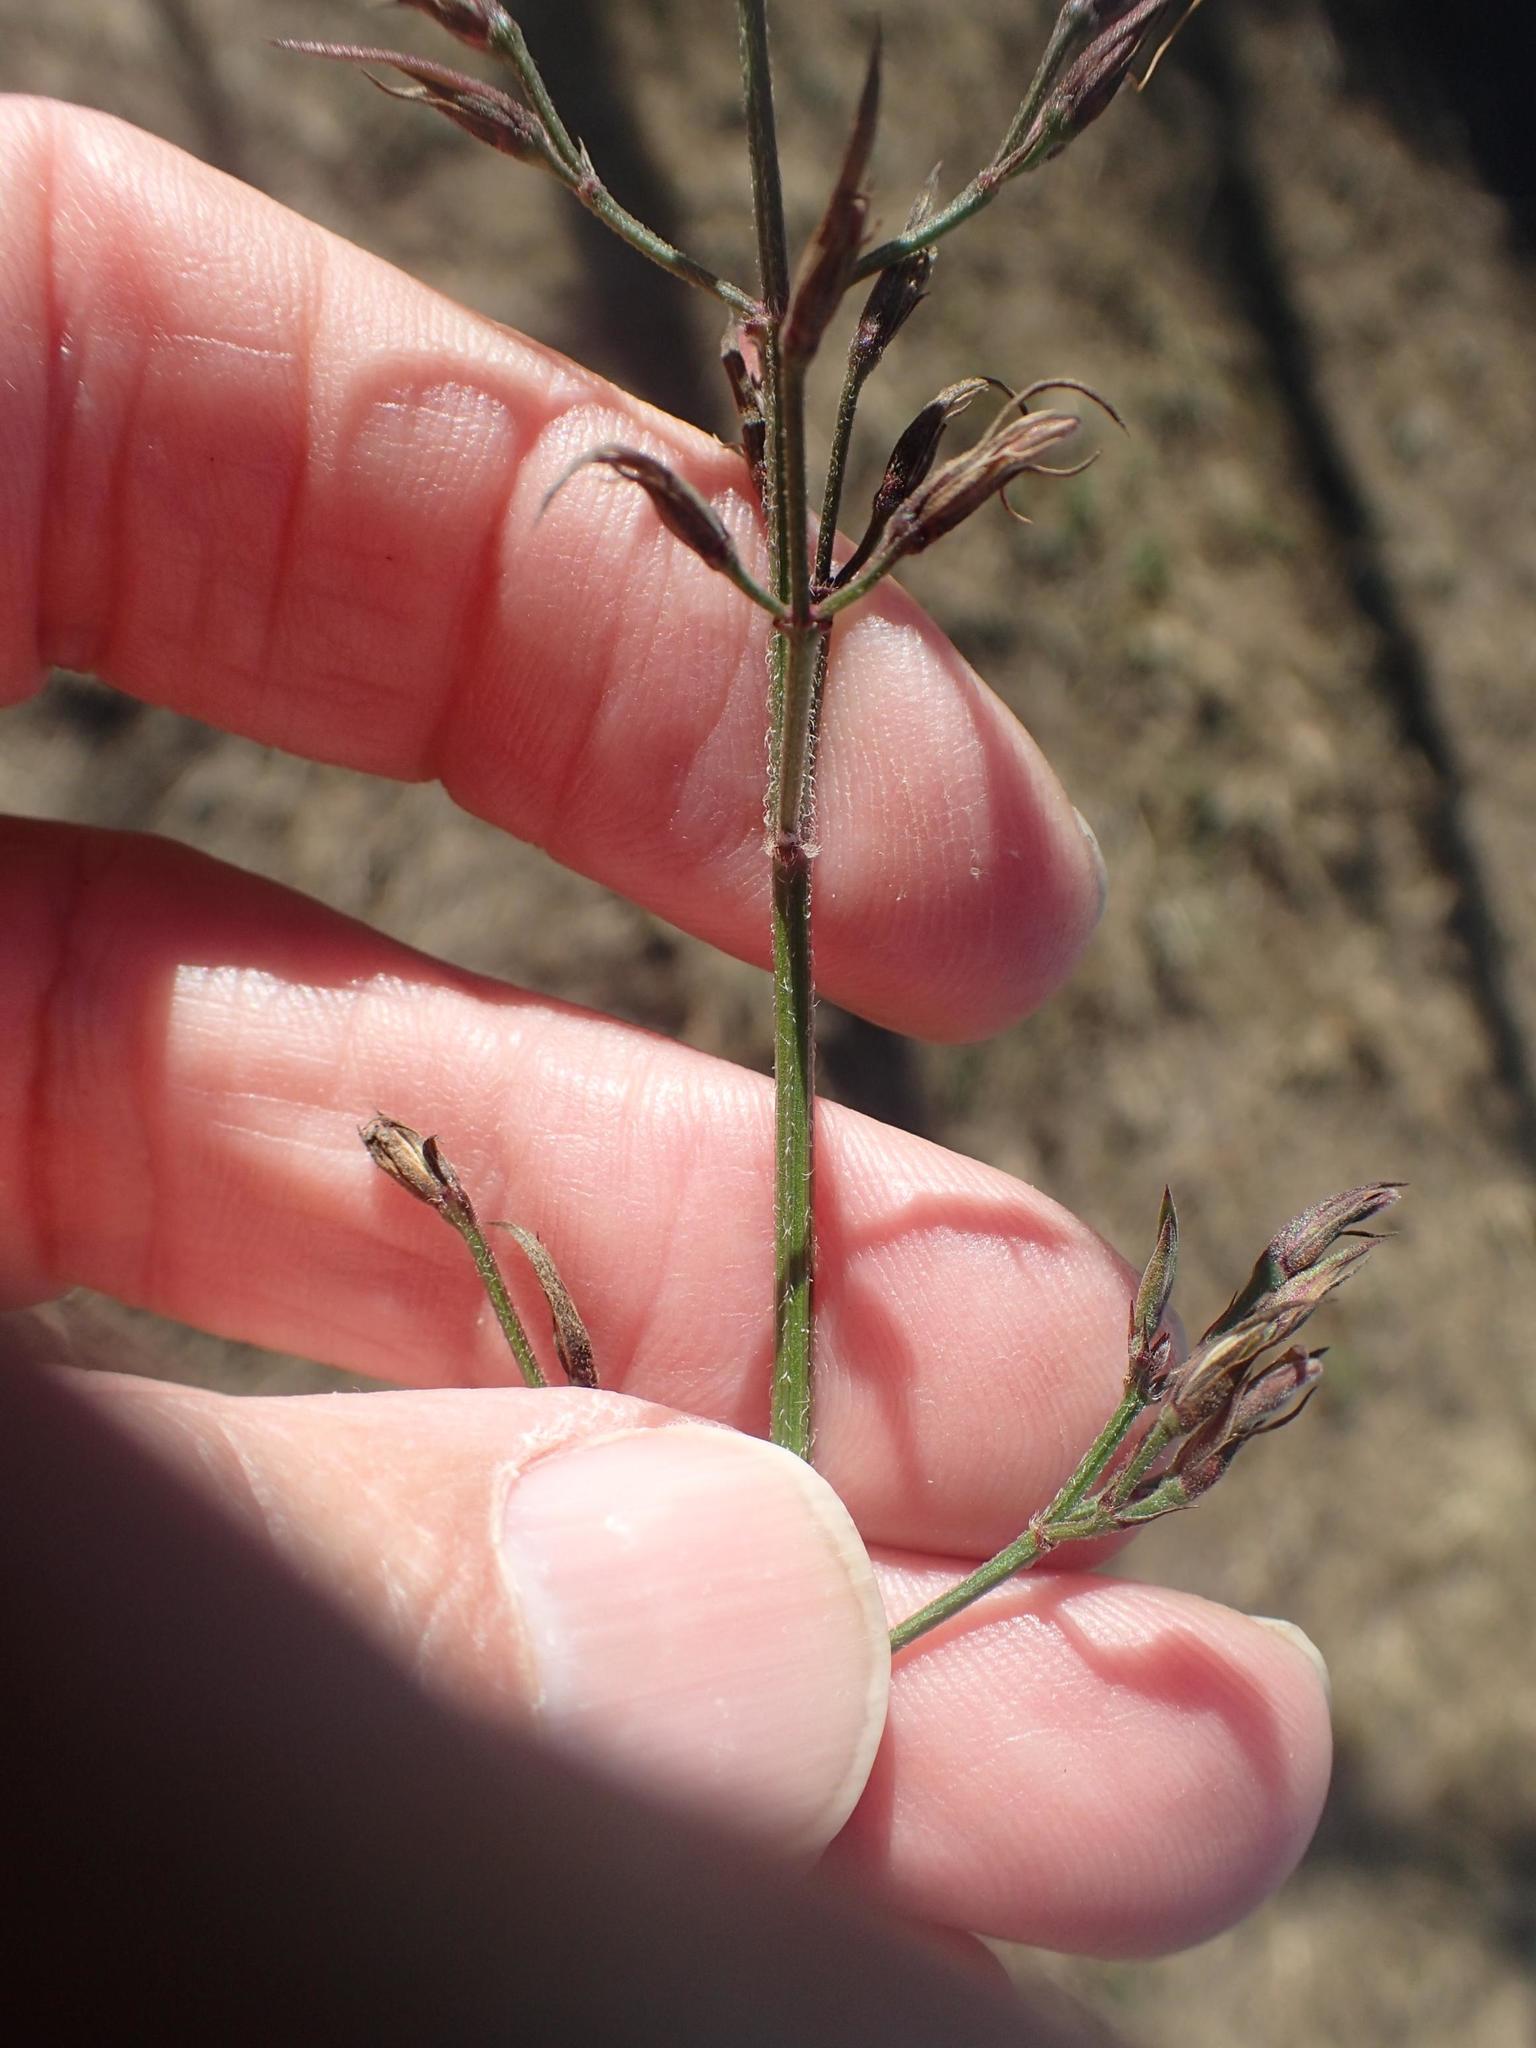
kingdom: Plantae
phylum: Tracheophyta
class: Magnoliopsida
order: Lamiales
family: Acanthaceae
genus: Dicliptera
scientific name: Dicliptera cernua
